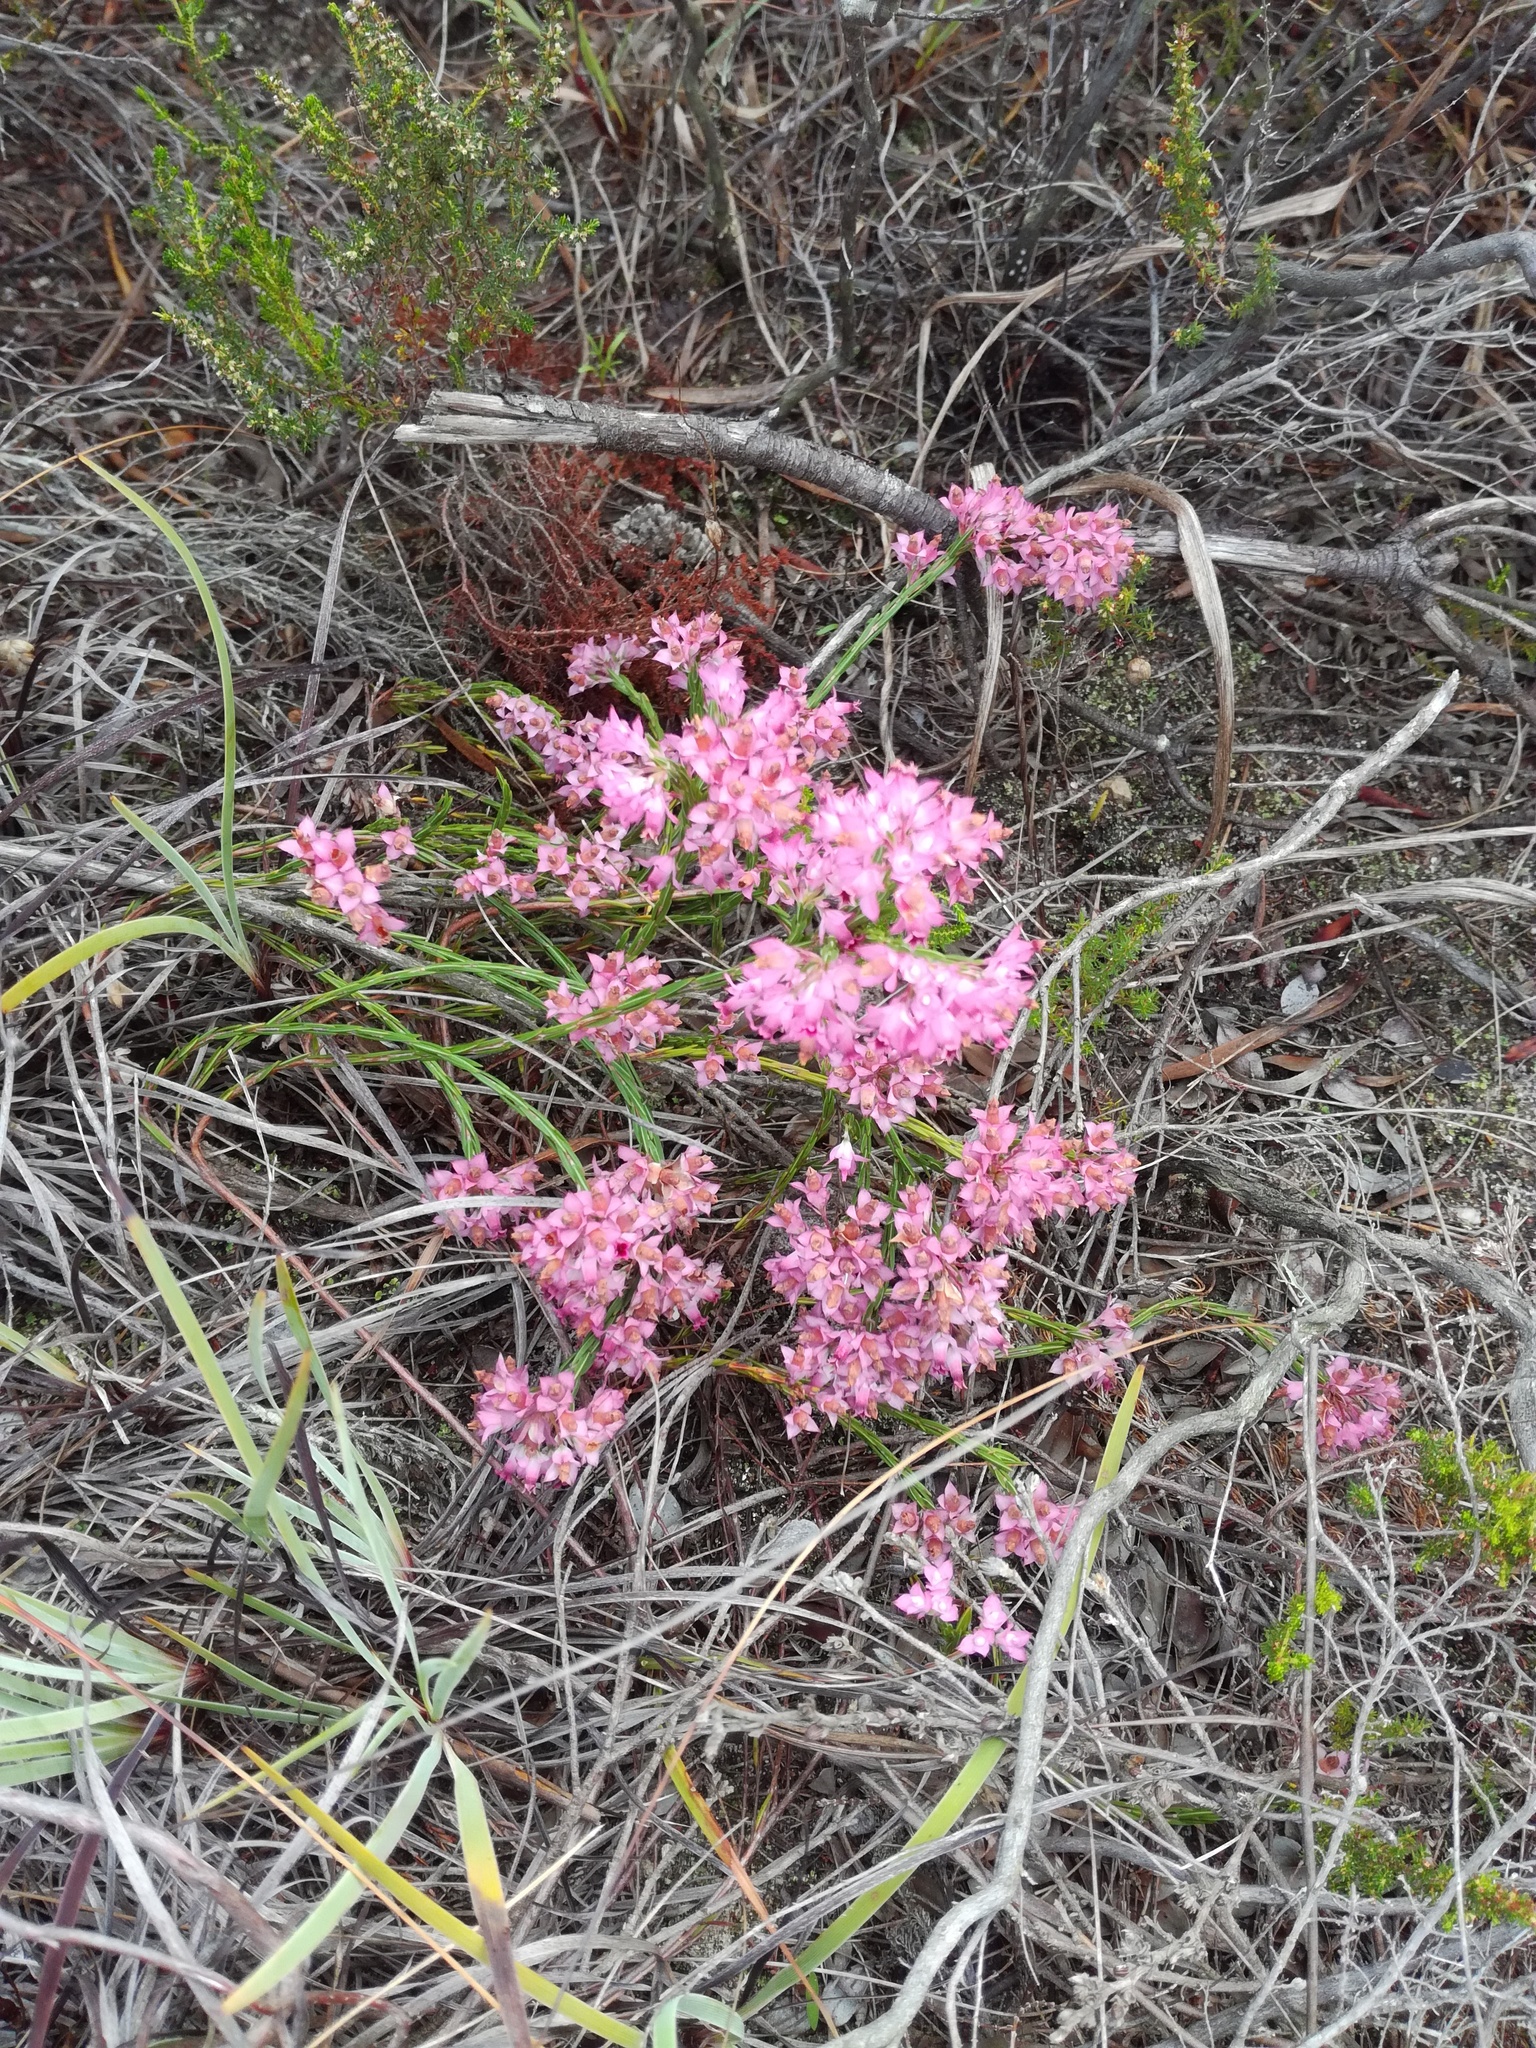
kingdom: Plantae
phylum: Tracheophyta
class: Magnoliopsida
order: Ericales
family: Ericaceae
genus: Erica
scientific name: Erica corifolia
